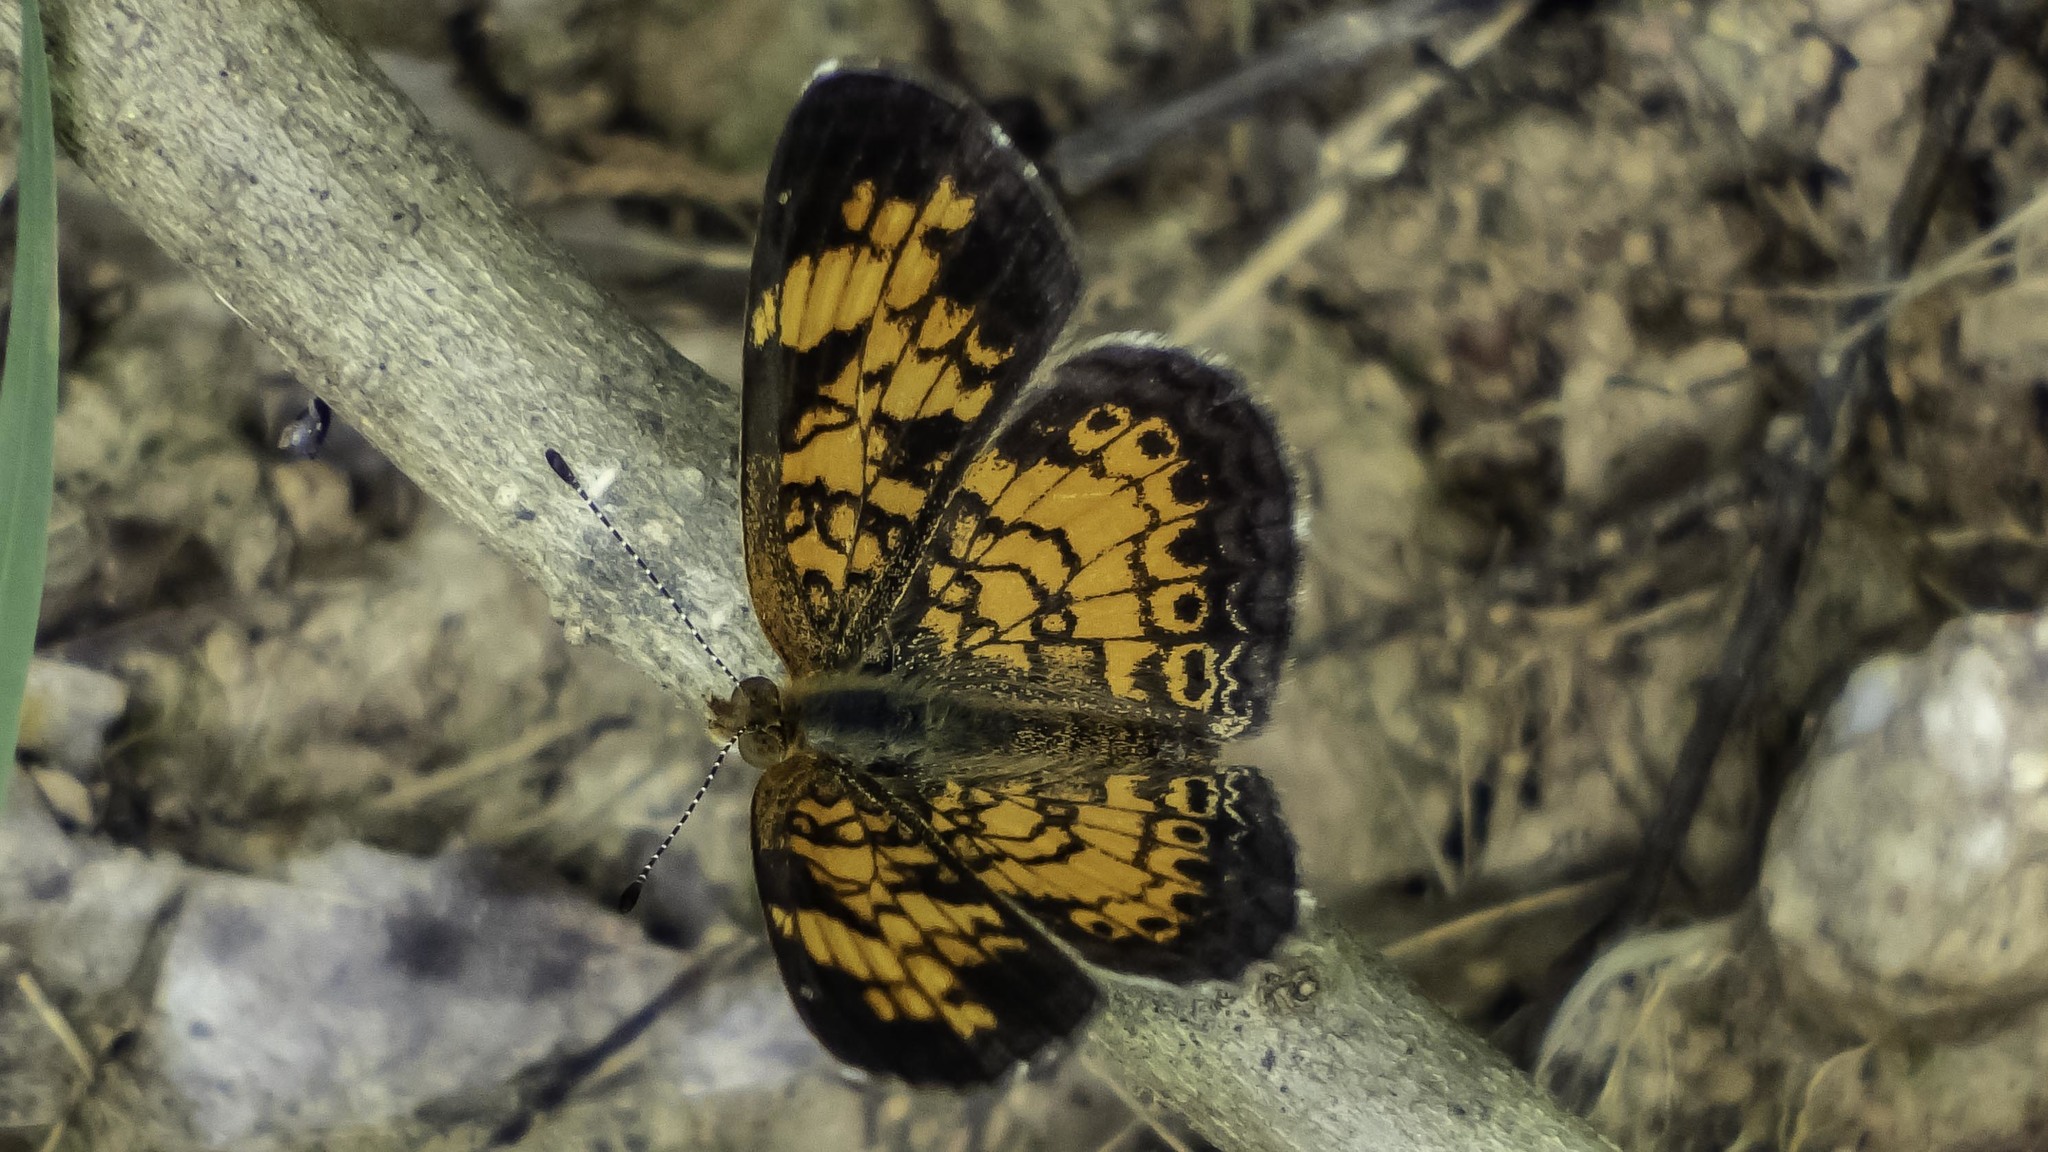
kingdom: Animalia
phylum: Arthropoda
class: Insecta
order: Lepidoptera
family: Nymphalidae
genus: Phyciodes
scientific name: Phyciodes tharos
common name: Pearl crescent
